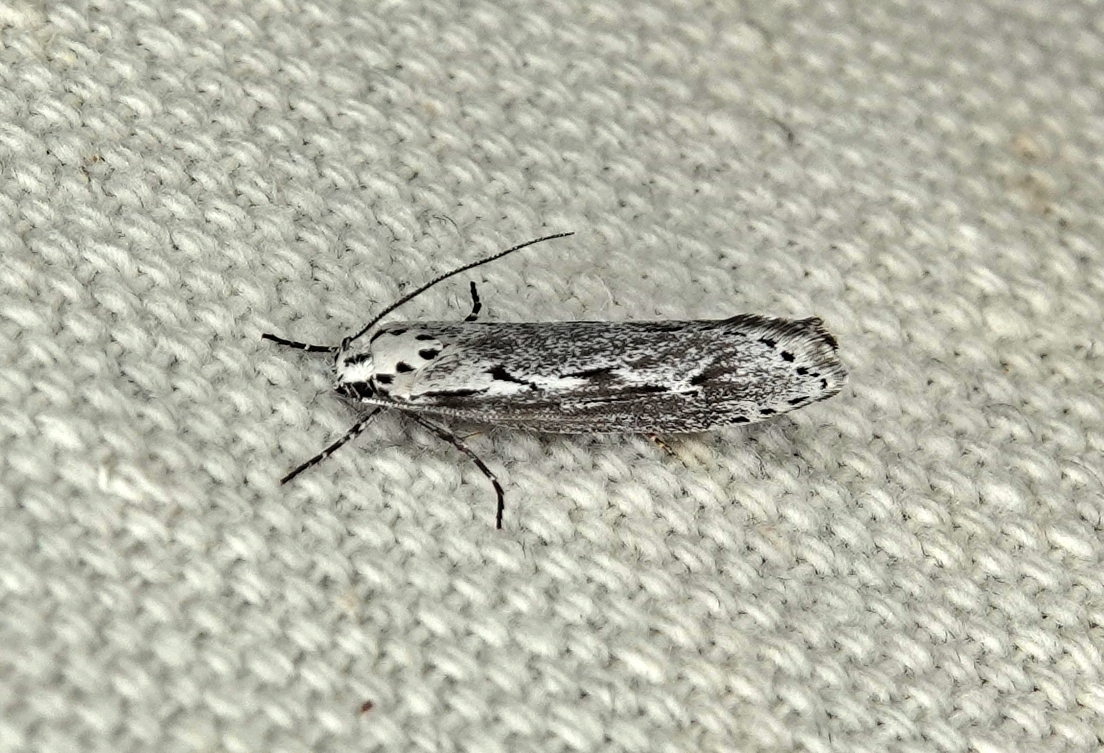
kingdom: Animalia
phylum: Arthropoda
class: Insecta
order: Lepidoptera
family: Ethmiidae
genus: Ethmia
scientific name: Ethmia discostrigella
